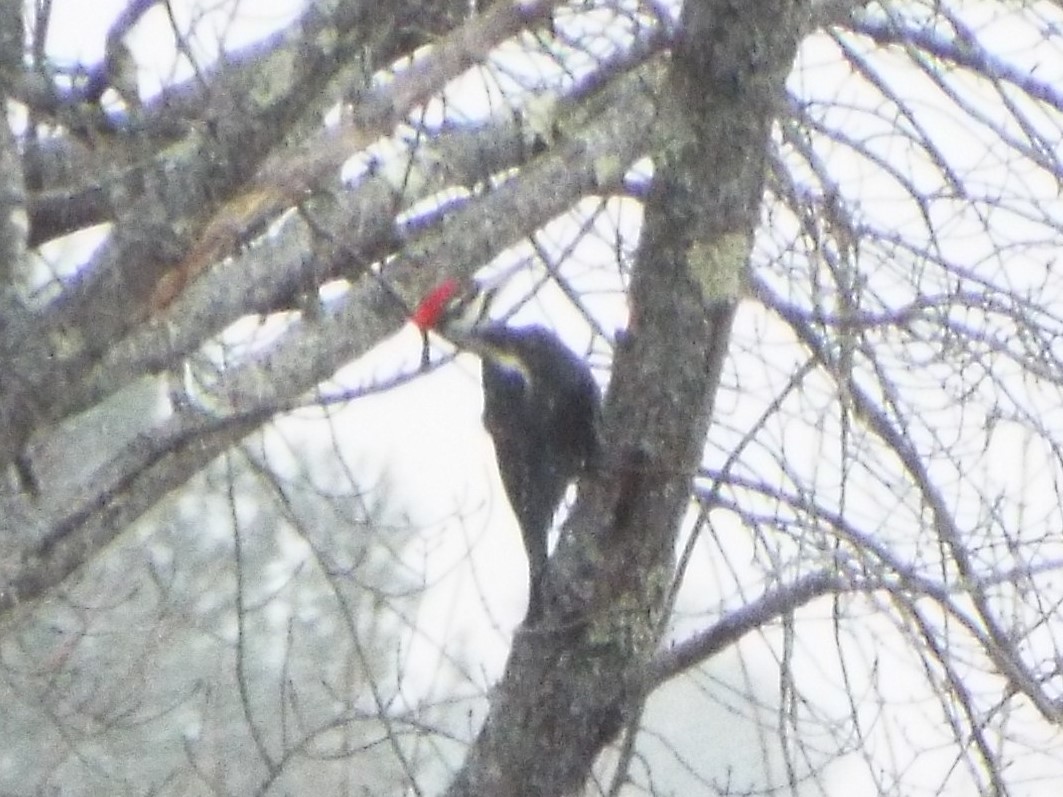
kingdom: Animalia
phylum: Chordata
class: Aves
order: Piciformes
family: Picidae
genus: Dryocopus
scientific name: Dryocopus pileatus
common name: Pileated woodpecker
